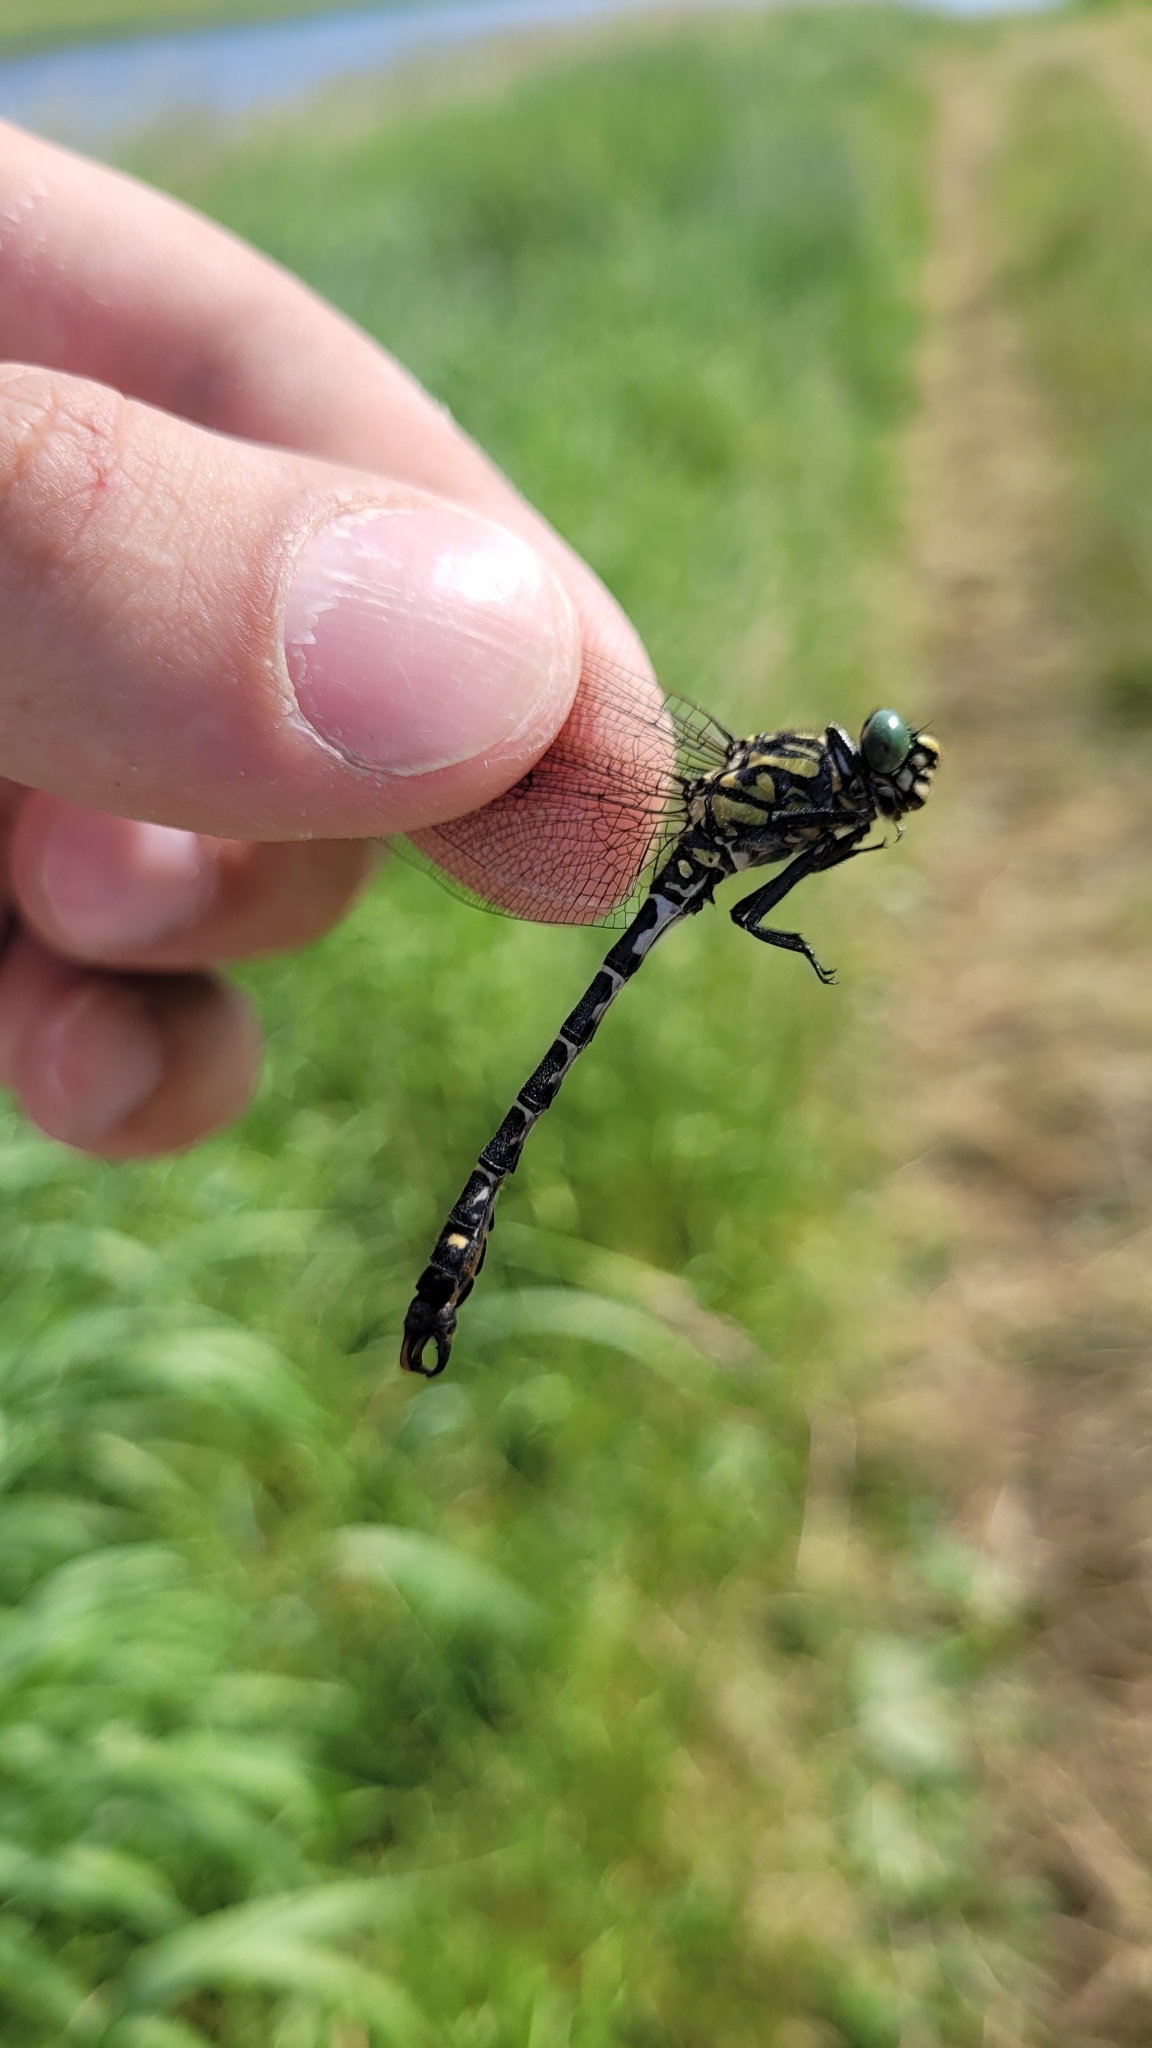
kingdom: Animalia
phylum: Arthropoda
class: Insecta
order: Odonata
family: Gomphidae
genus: Onychogomphus
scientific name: Onychogomphus forcipatus
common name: Small pincertail
